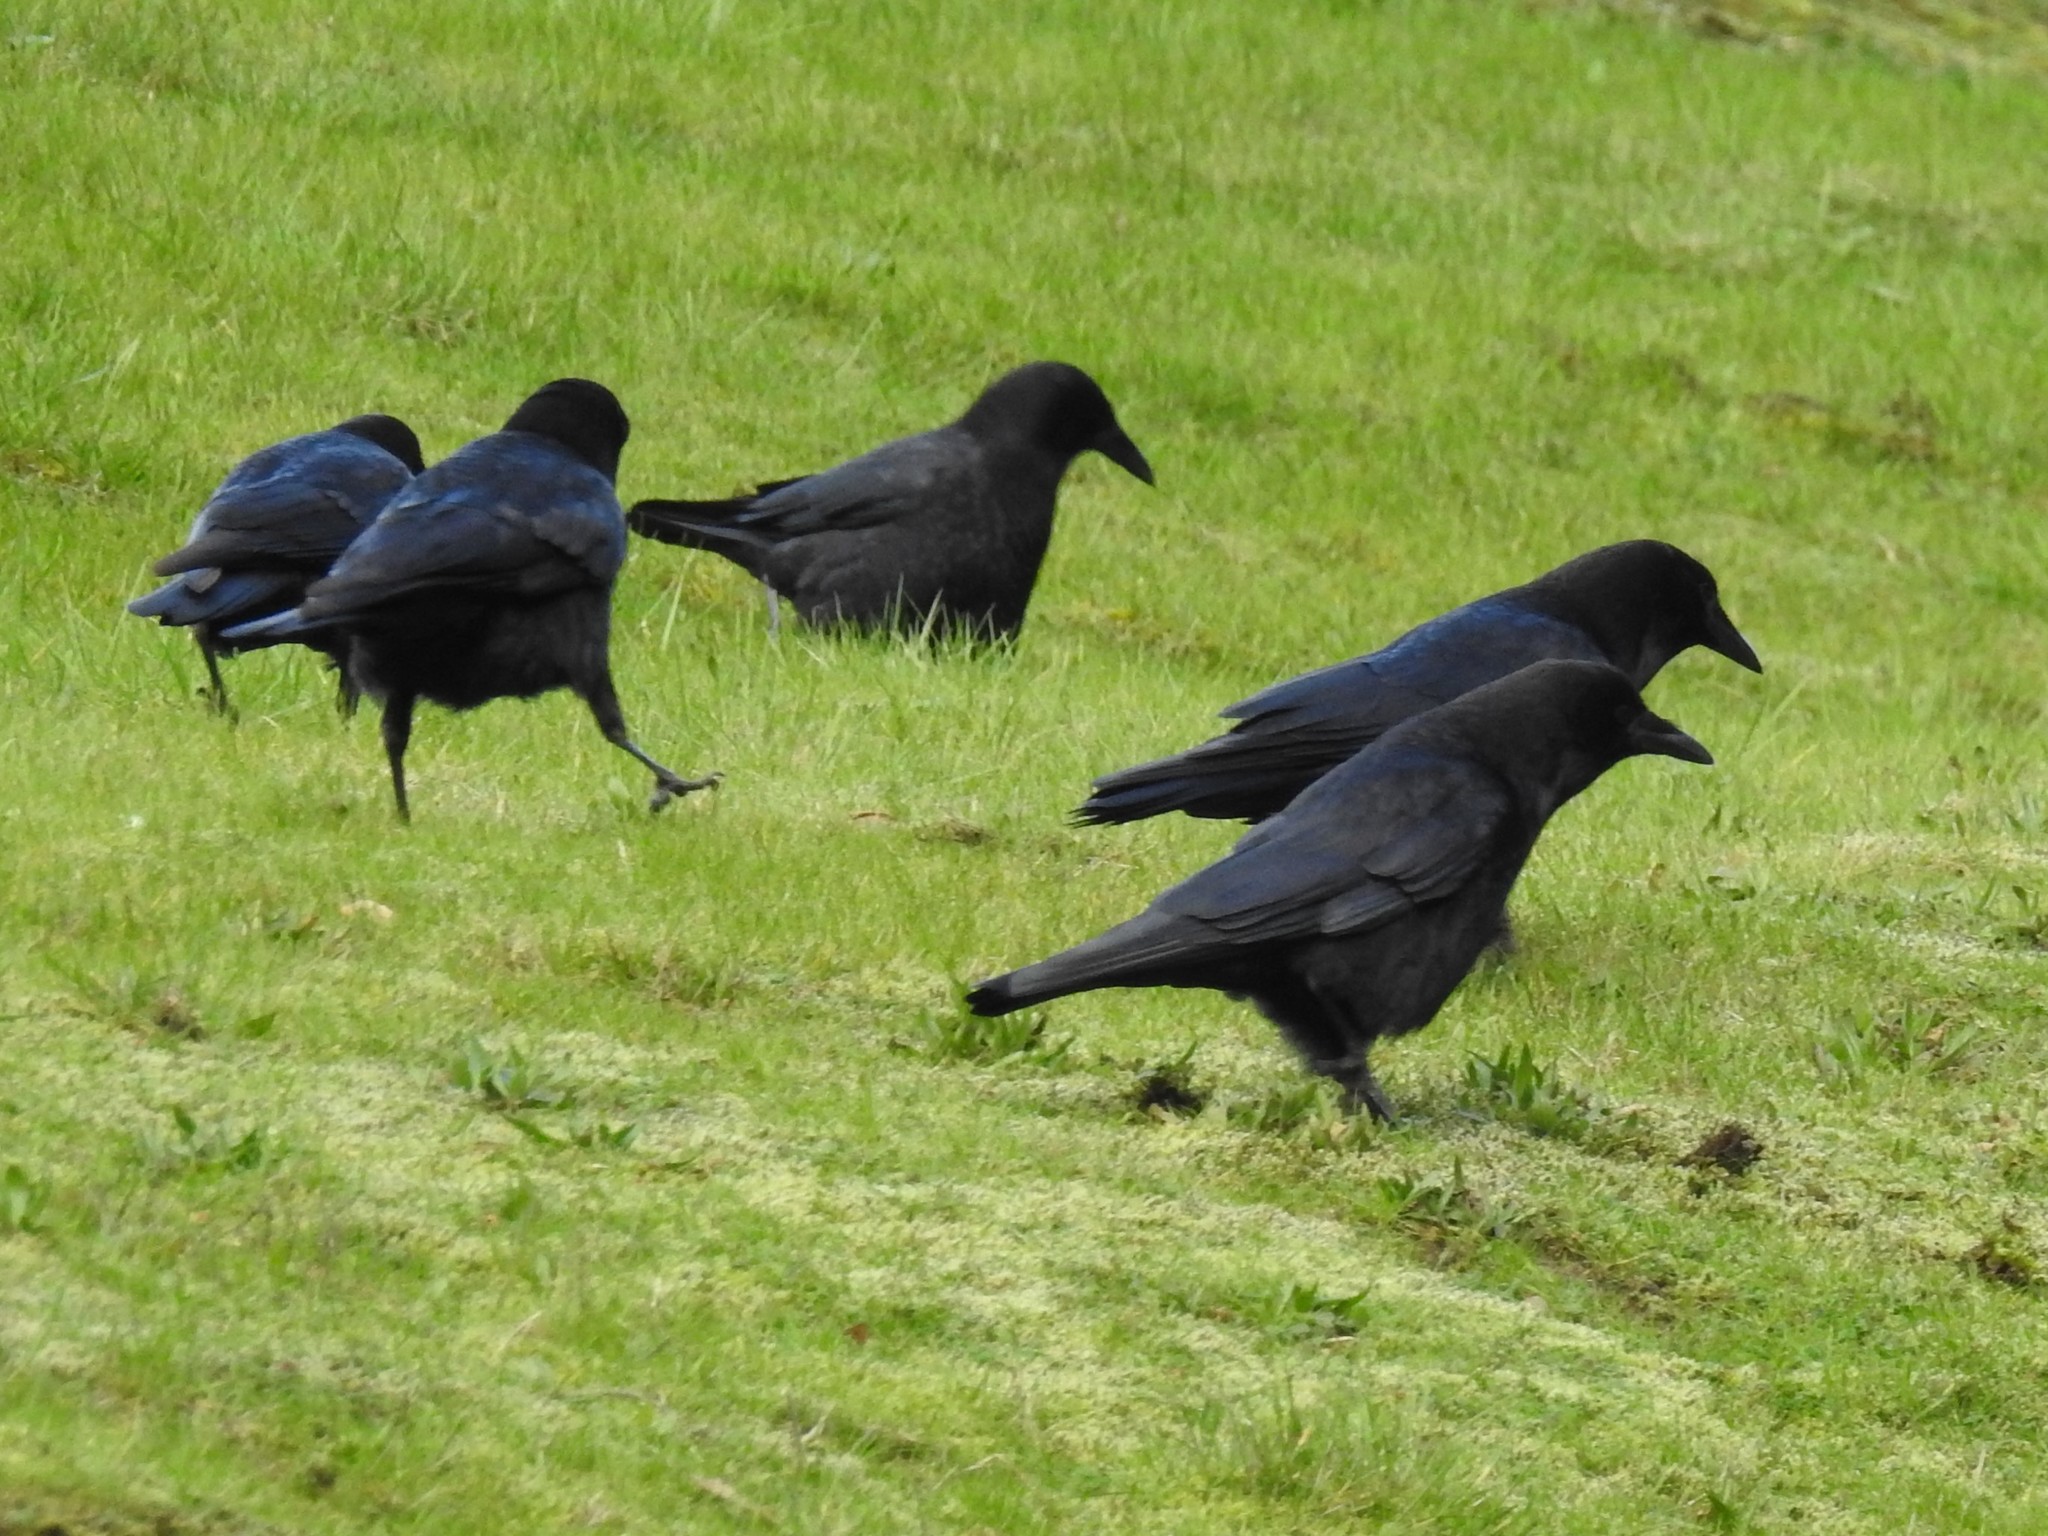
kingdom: Animalia
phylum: Chordata
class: Aves
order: Passeriformes
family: Corvidae
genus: Corvus
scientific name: Corvus brachyrhynchos
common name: American crow
